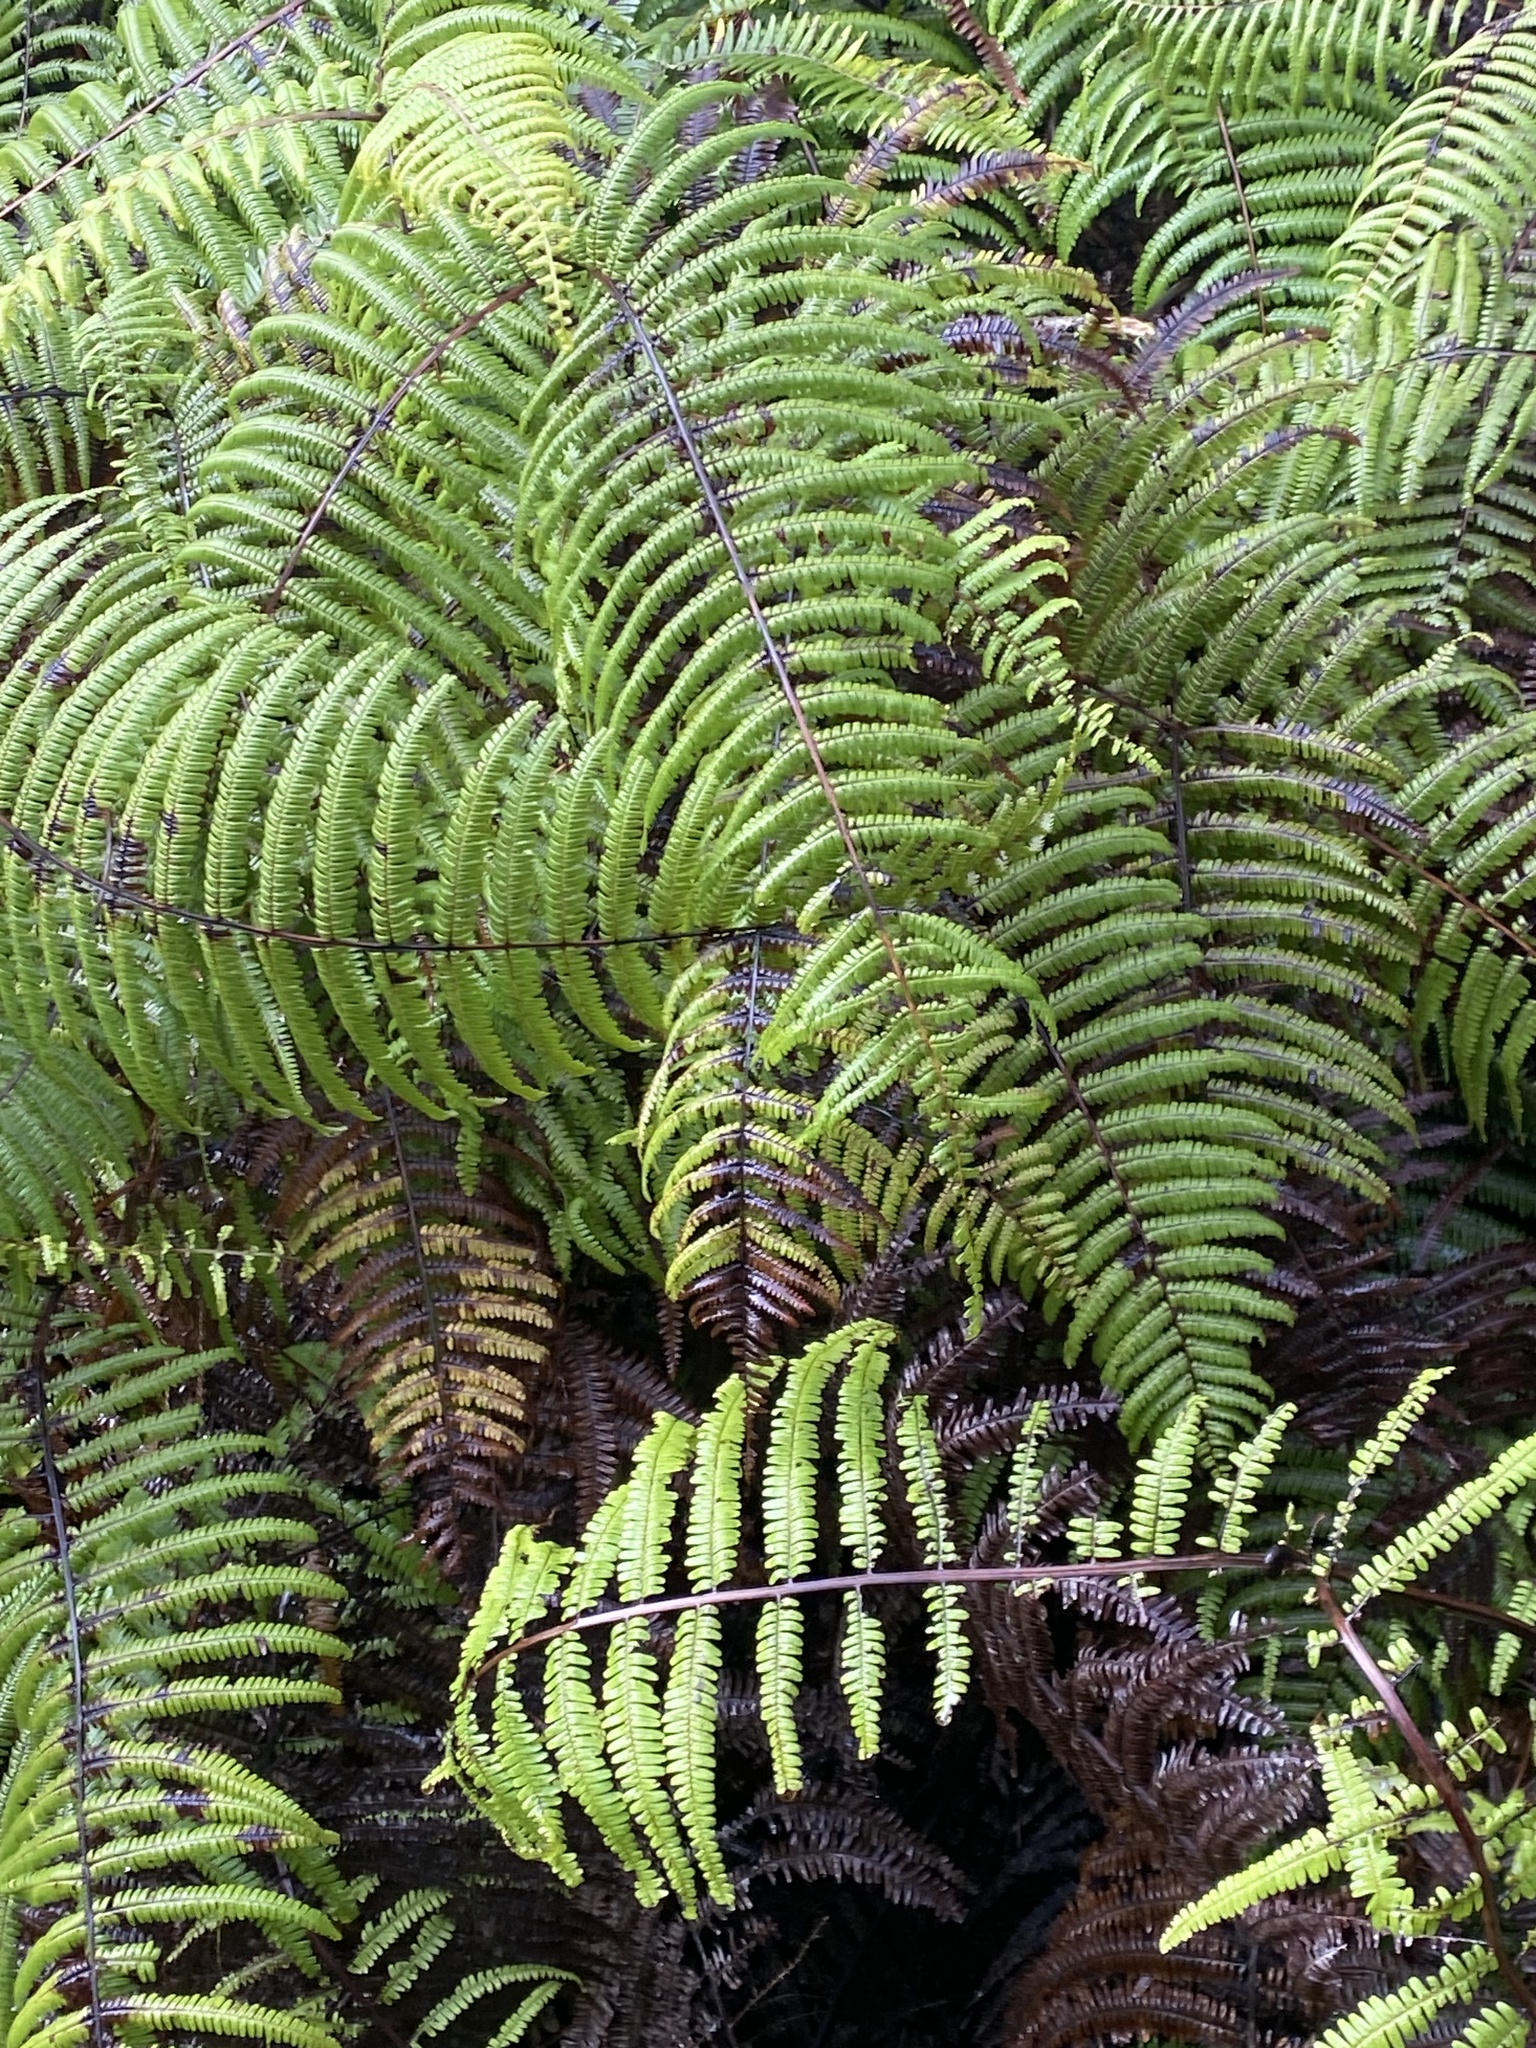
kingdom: Plantae
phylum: Tracheophyta
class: Polypodiopsida
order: Gleicheniales
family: Gleicheniaceae
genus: Diplopterygium
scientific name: Diplopterygium pinnatum
